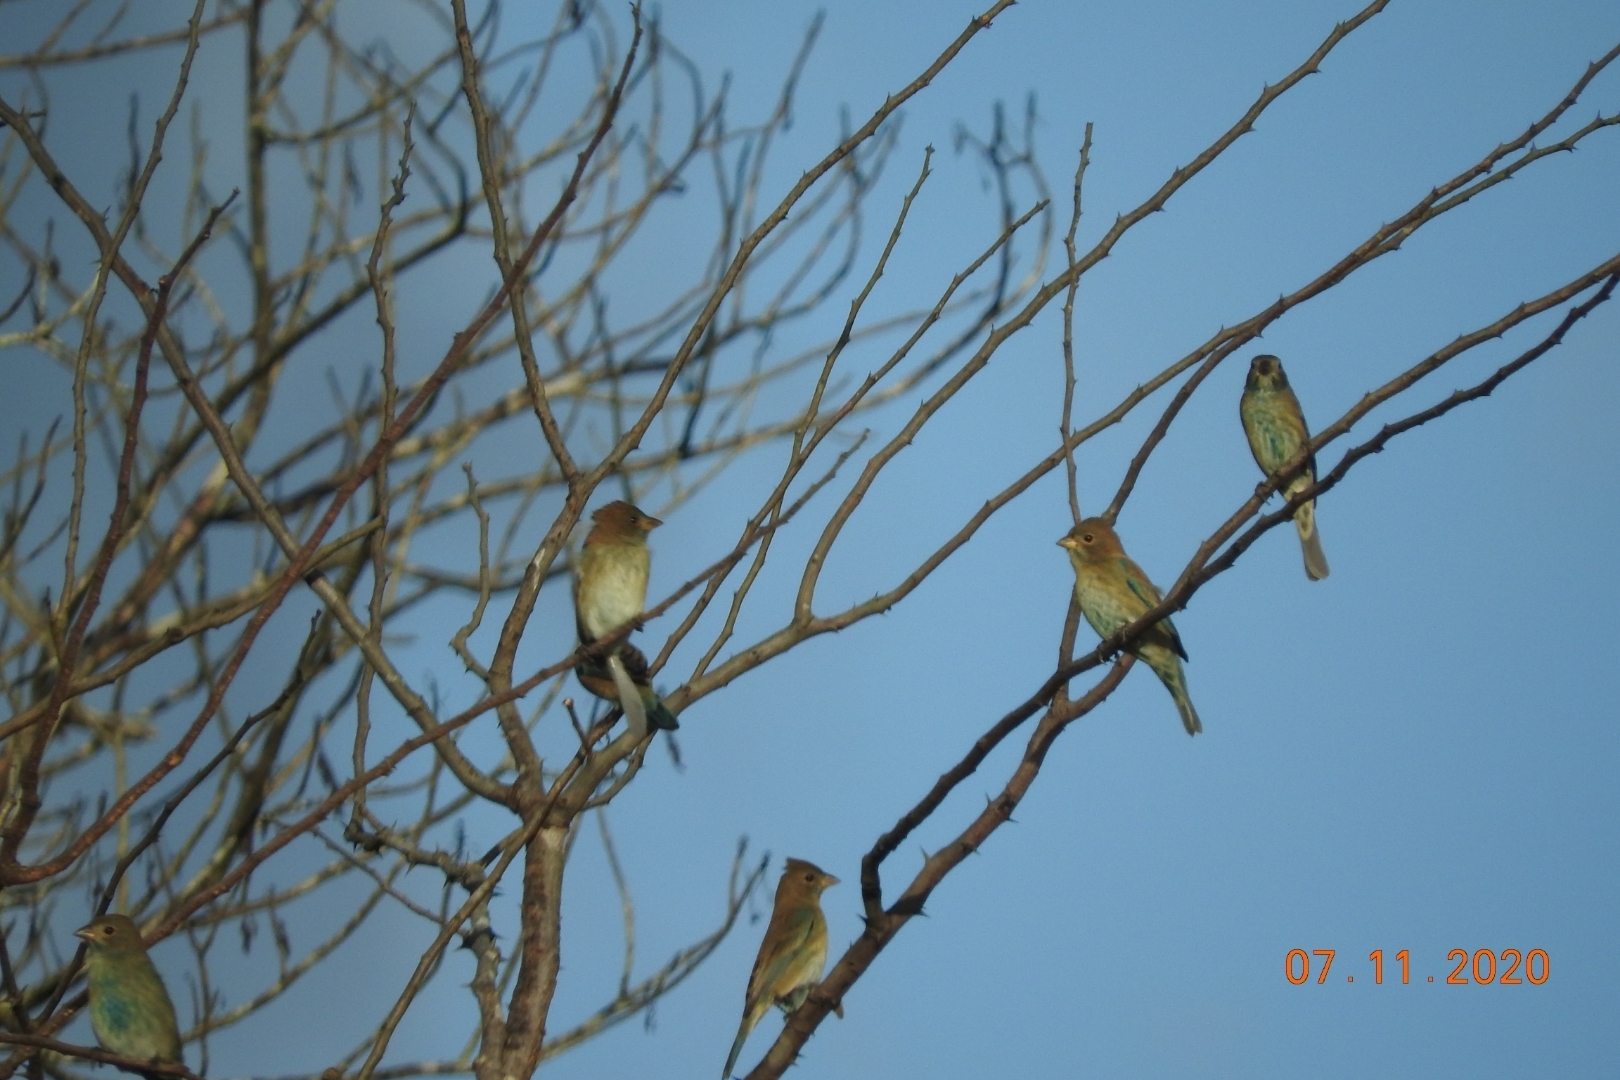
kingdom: Animalia
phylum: Chordata
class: Aves
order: Passeriformes
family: Cardinalidae
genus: Passerina
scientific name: Passerina cyanea
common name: Indigo bunting
